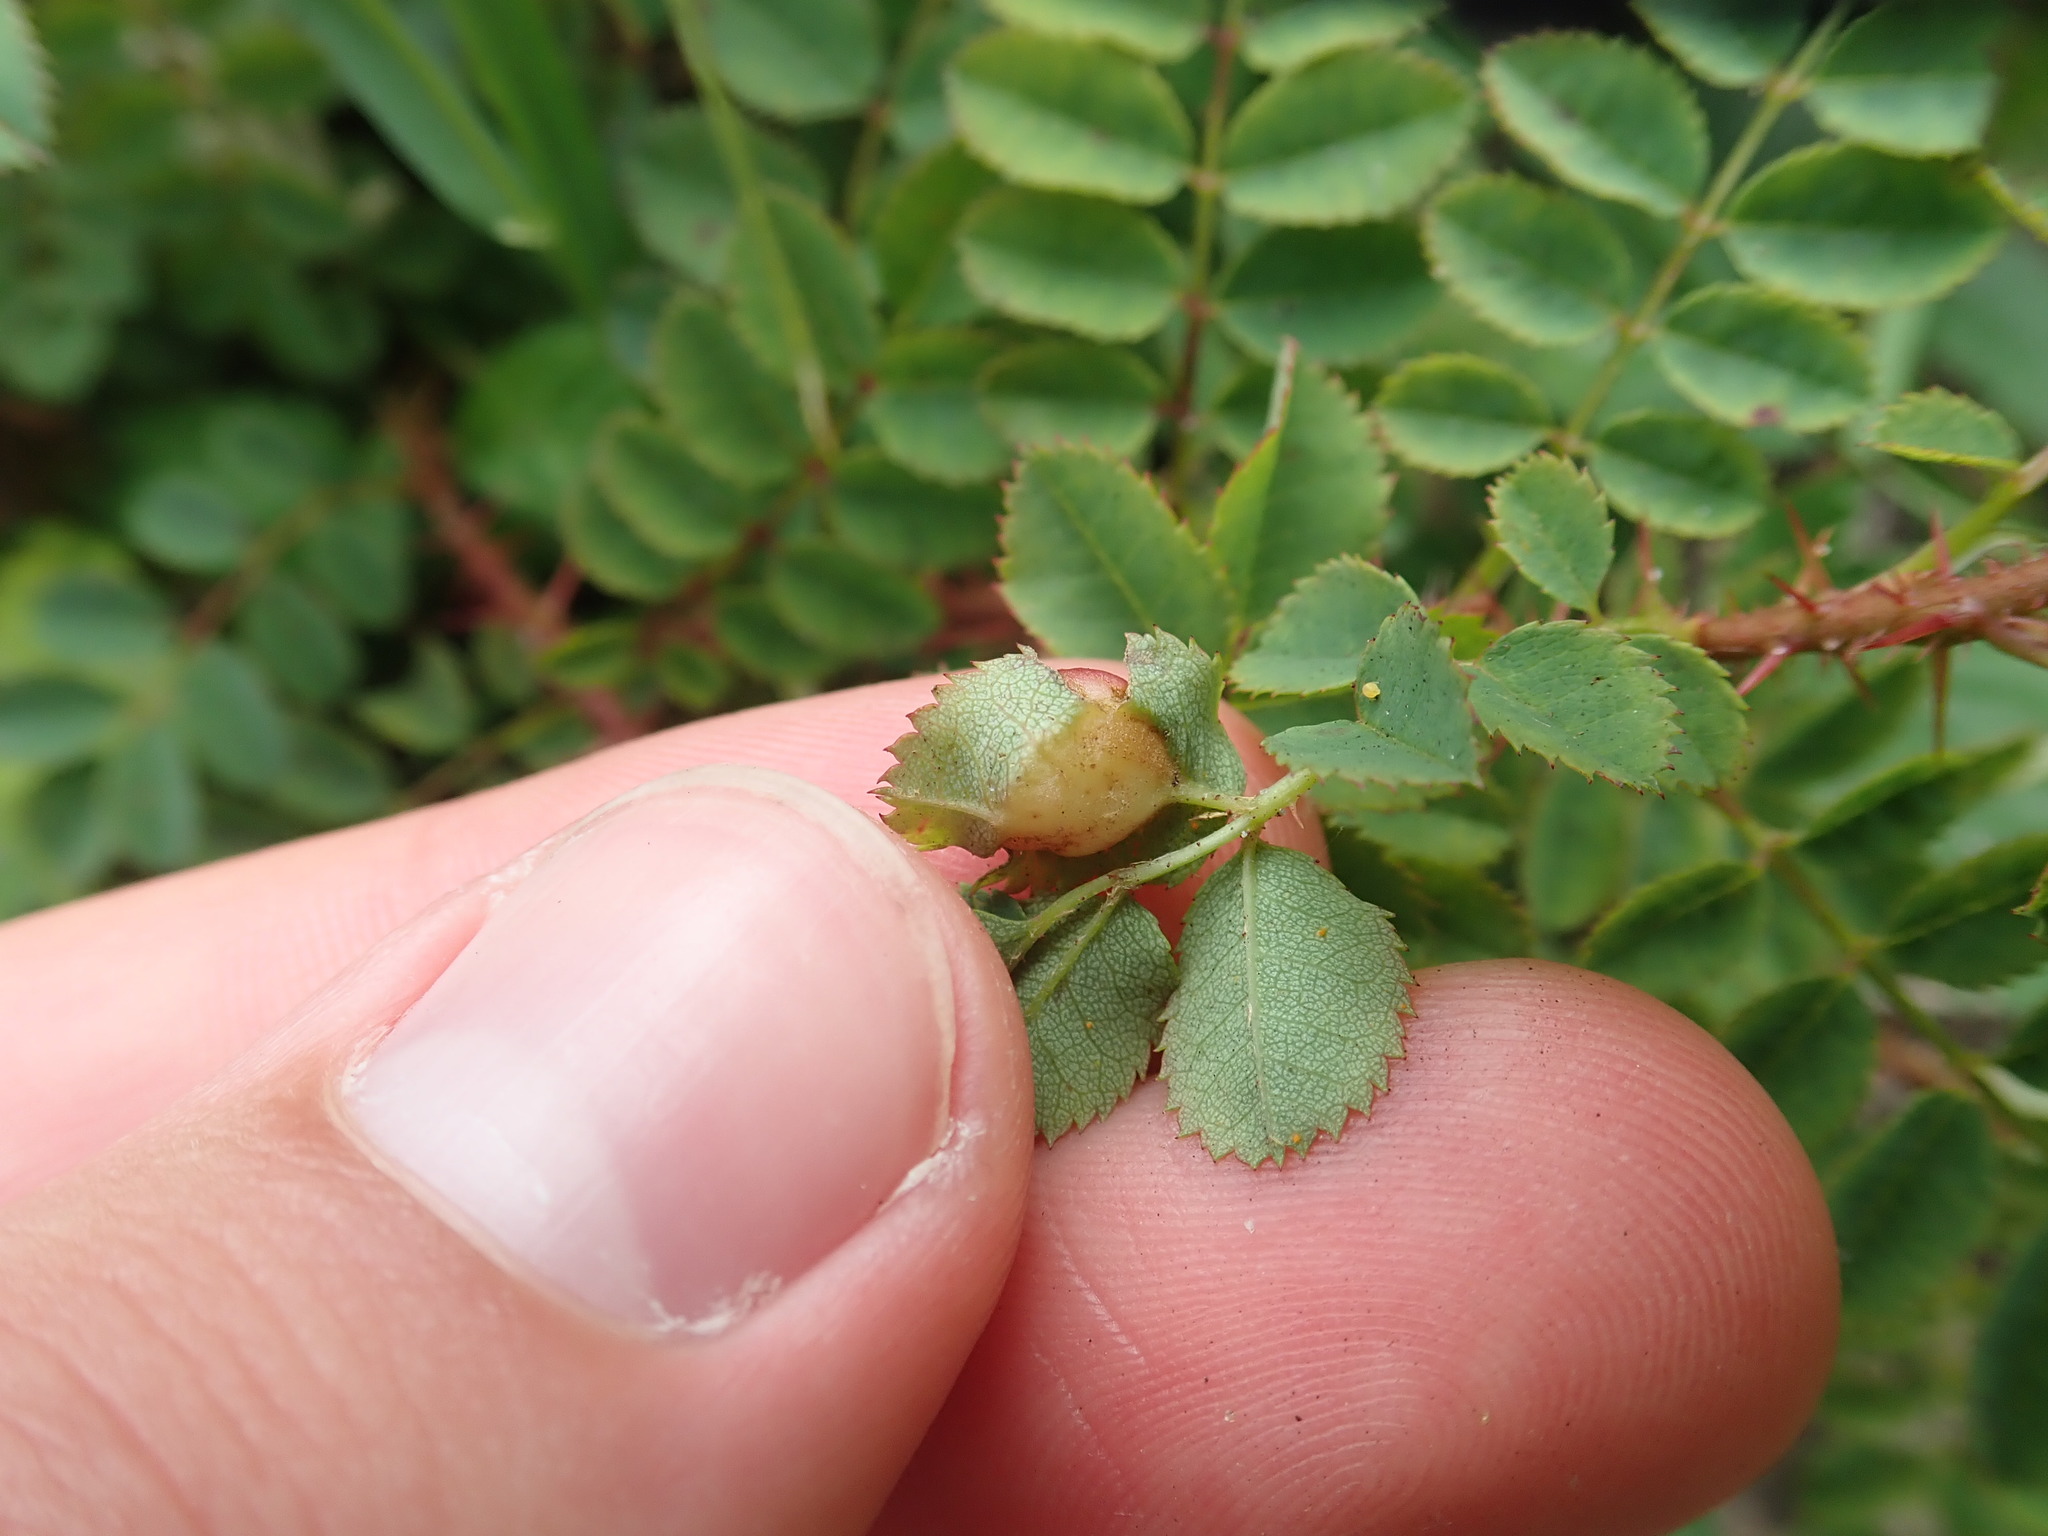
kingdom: Animalia
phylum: Arthropoda
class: Insecta
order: Hymenoptera
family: Cynipidae
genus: Diplolepis
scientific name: Diplolepis spinosissimae
